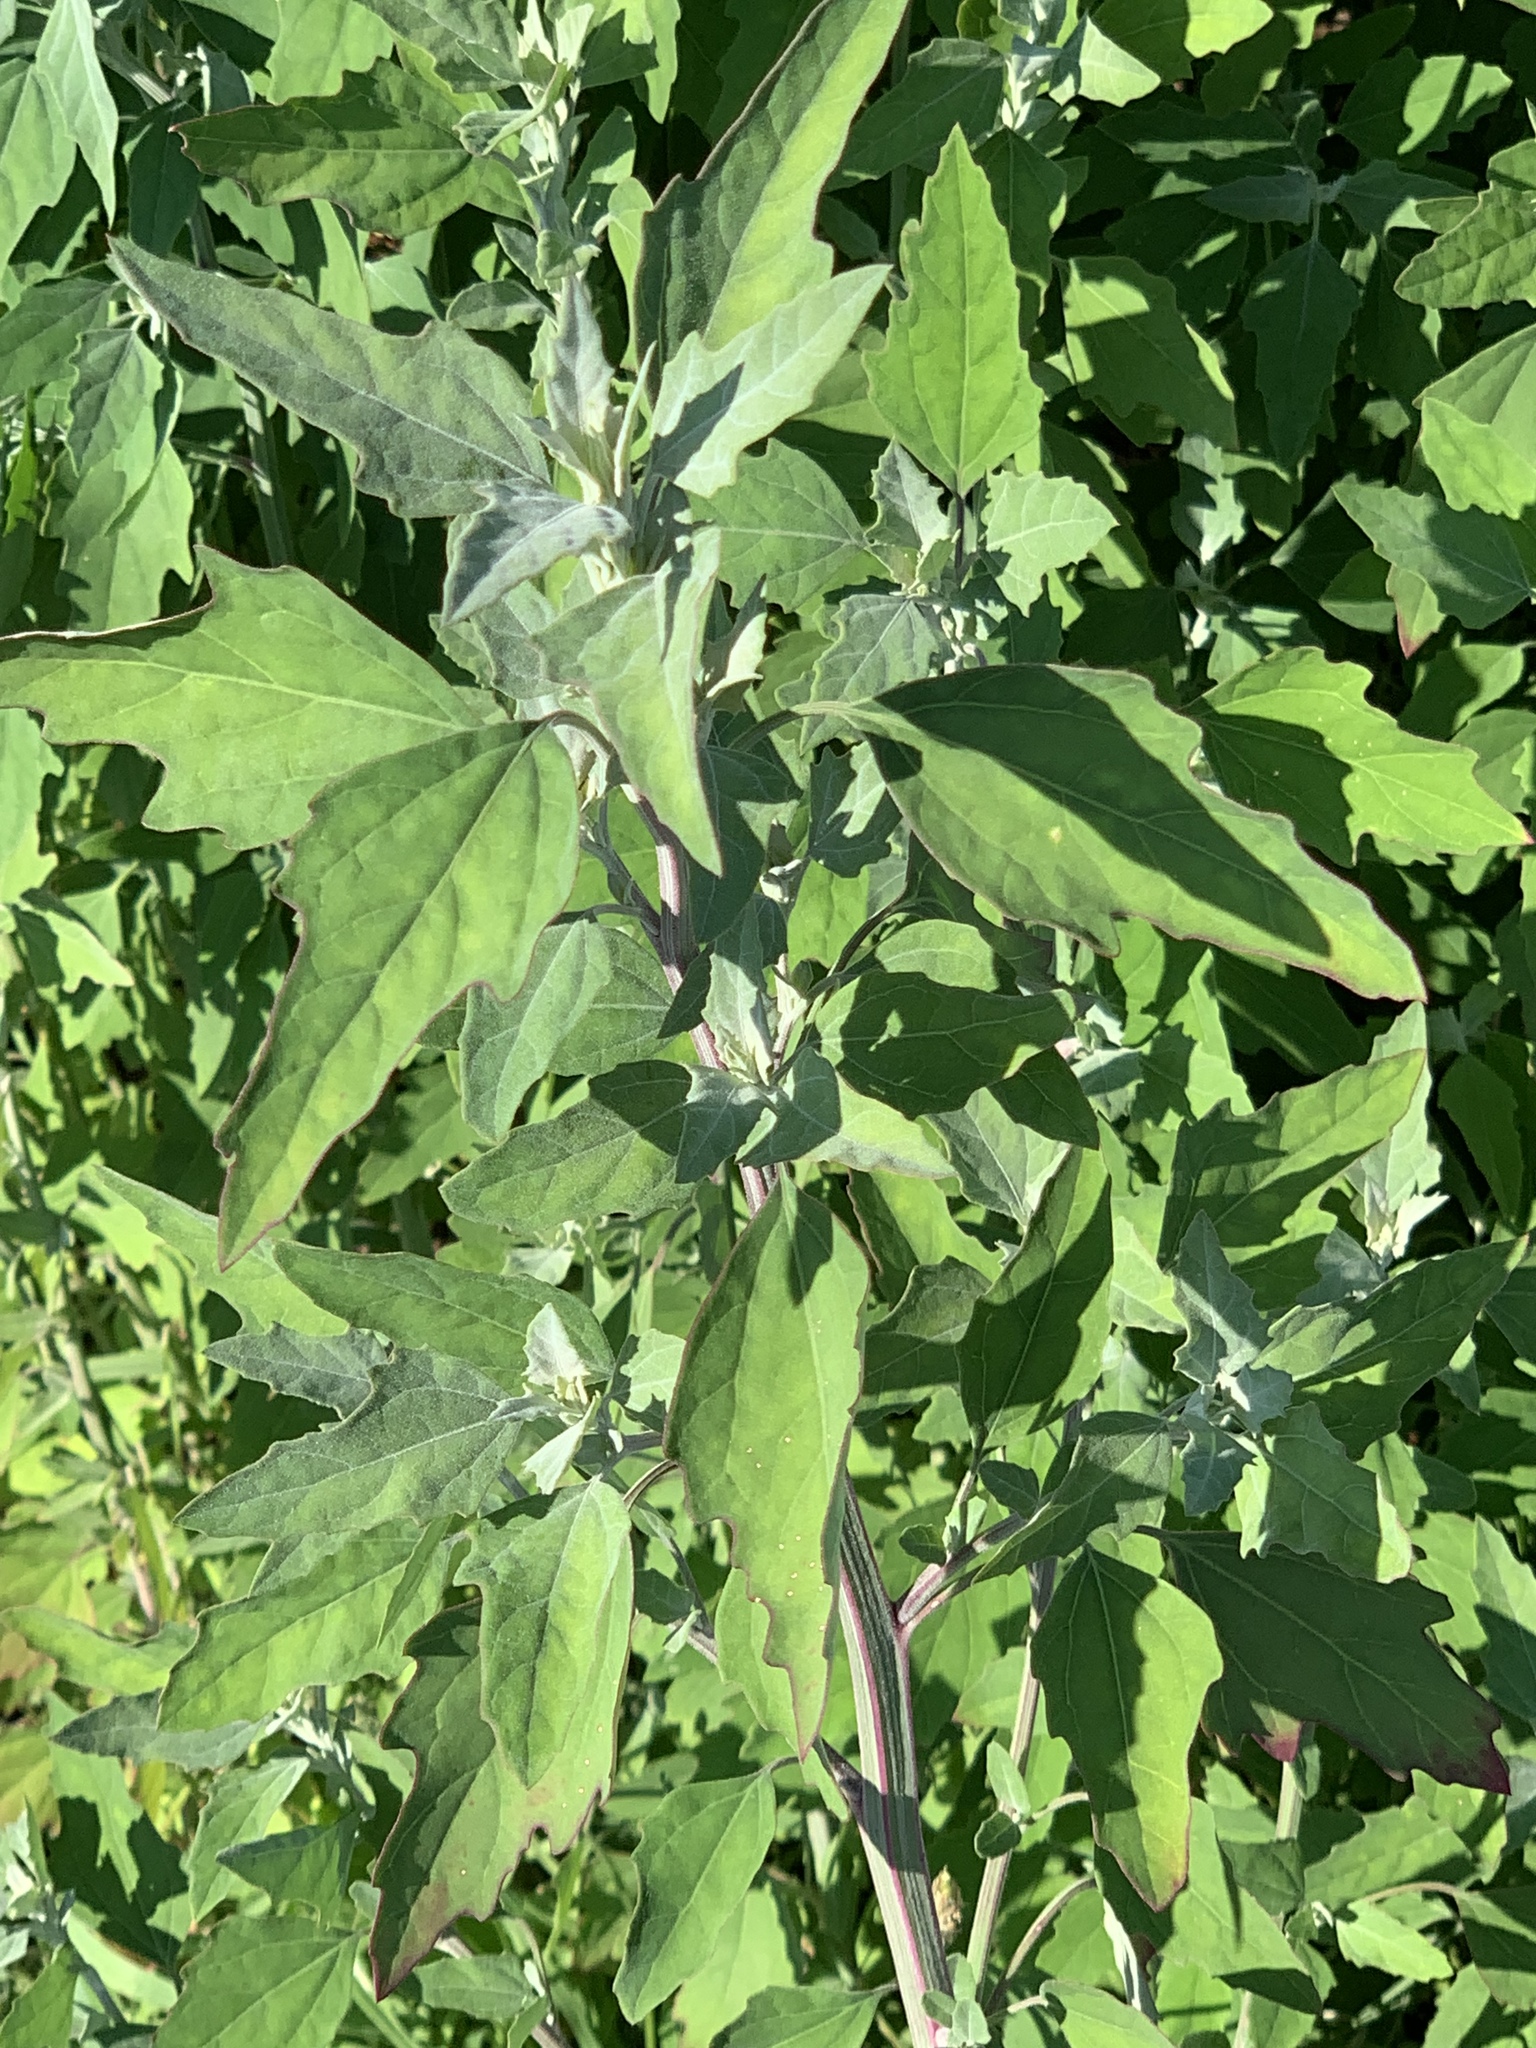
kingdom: Plantae
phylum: Tracheophyta
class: Magnoliopsida
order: Caryophyllales
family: Amaranthaceae
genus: Chenopodium
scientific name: Chenopodium album
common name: Fat-hen
